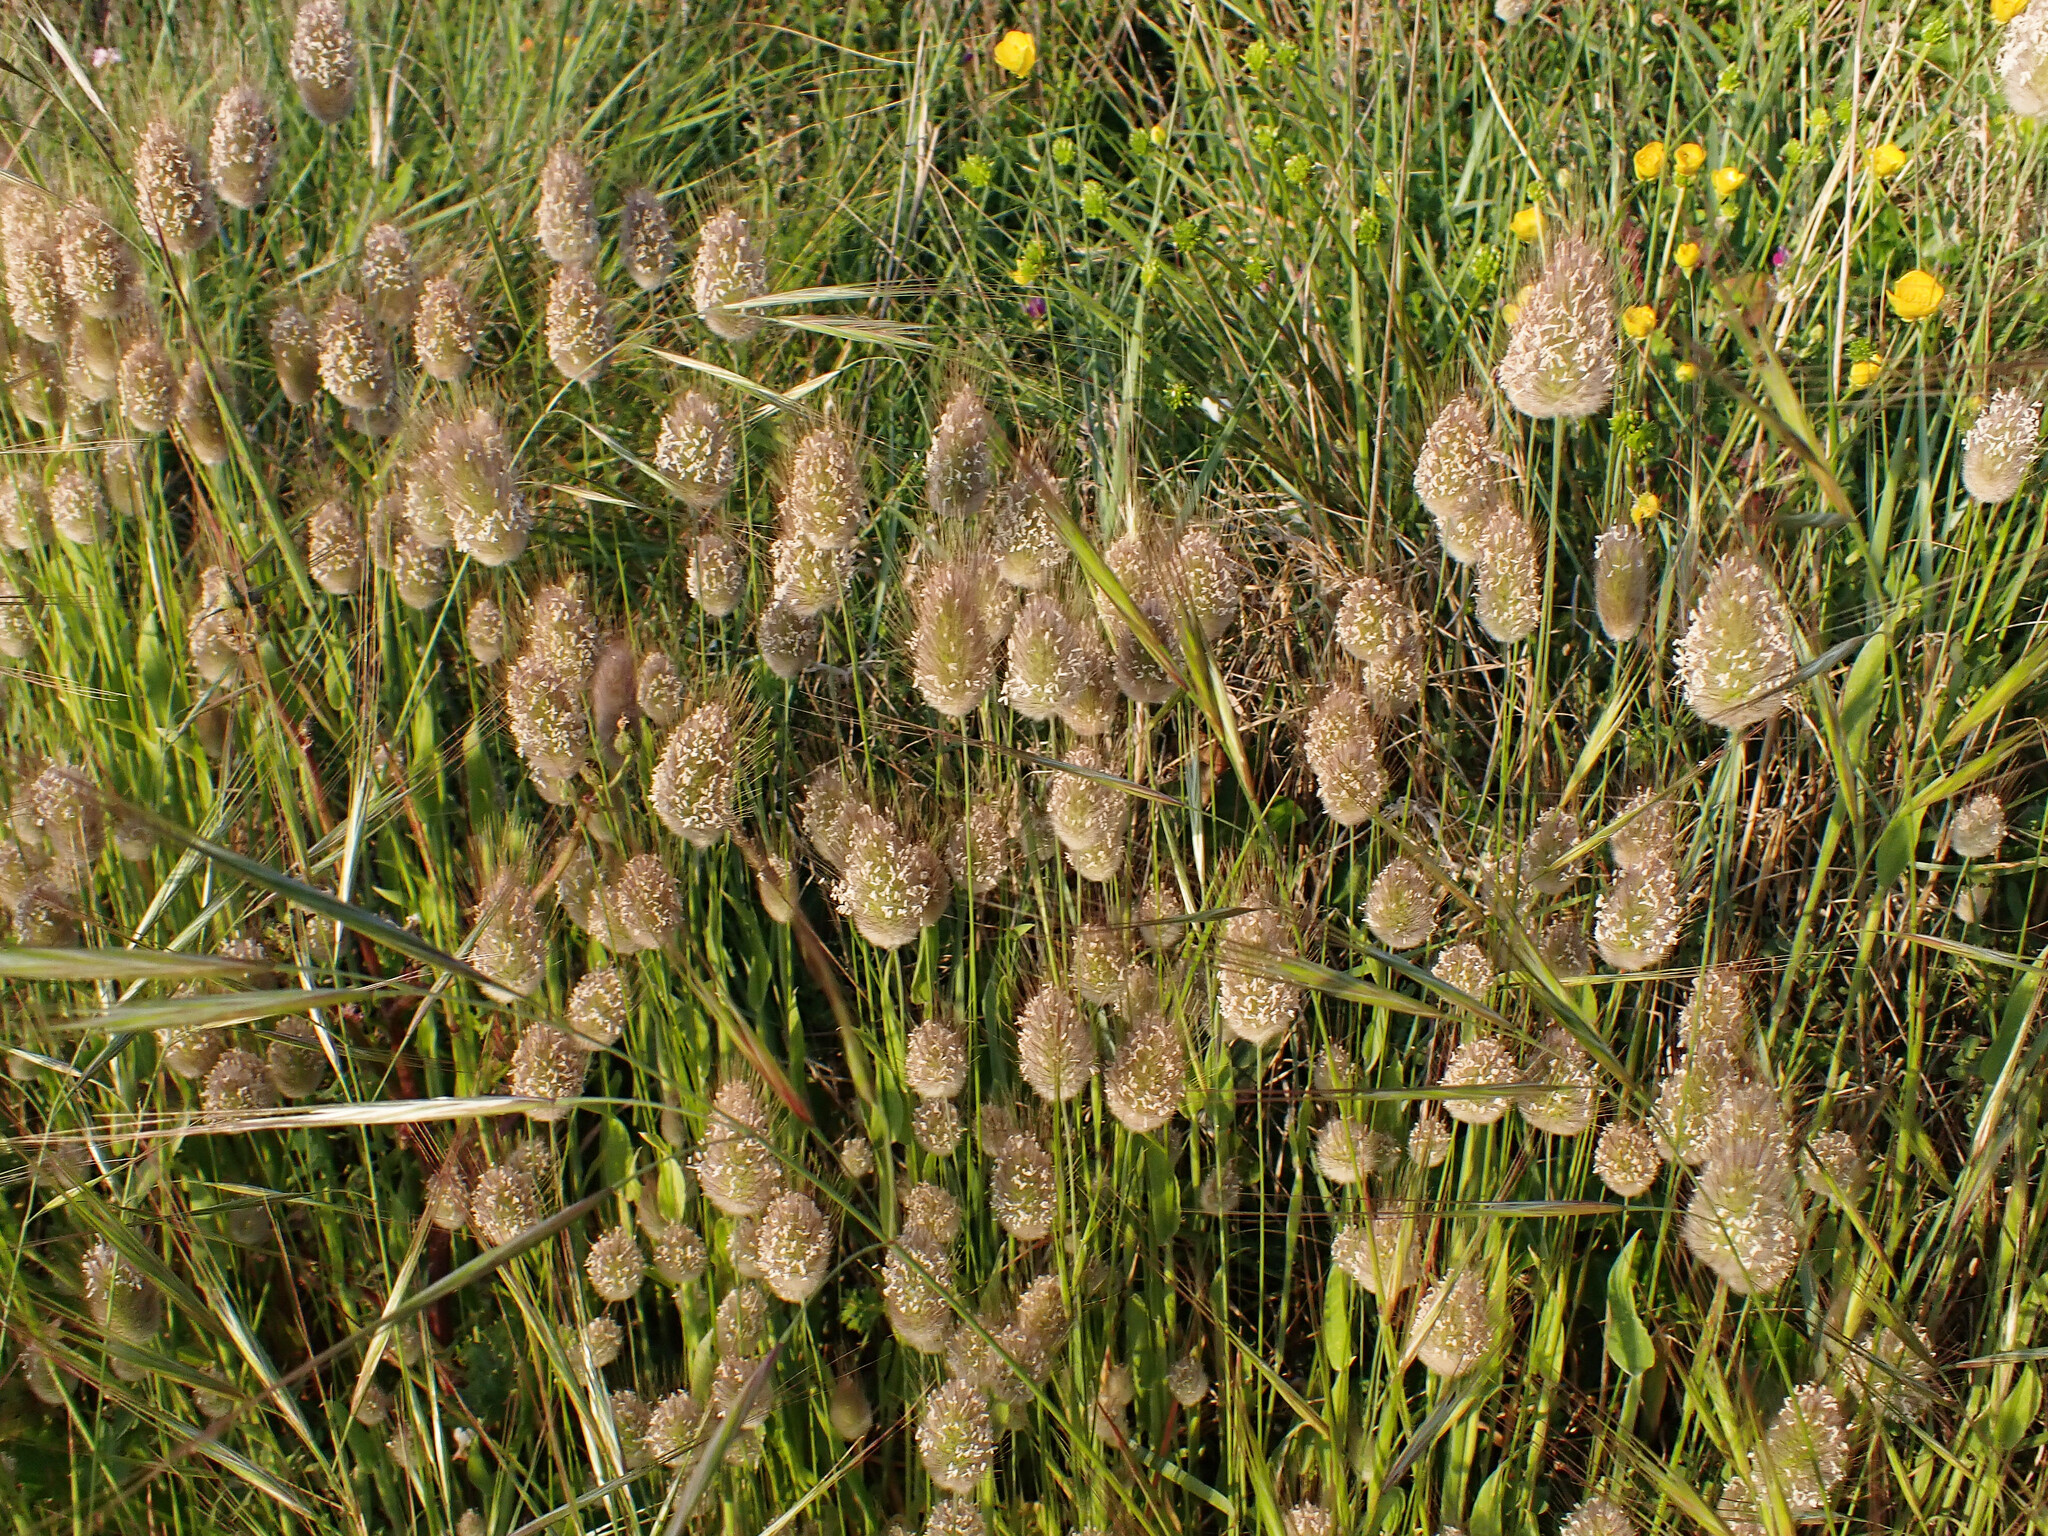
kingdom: Plantae
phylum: Tracheophyta
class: Liliopsida
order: Poales
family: Poaceae
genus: Lagurus
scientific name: Lagurus ovatus
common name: Hare's-tail
